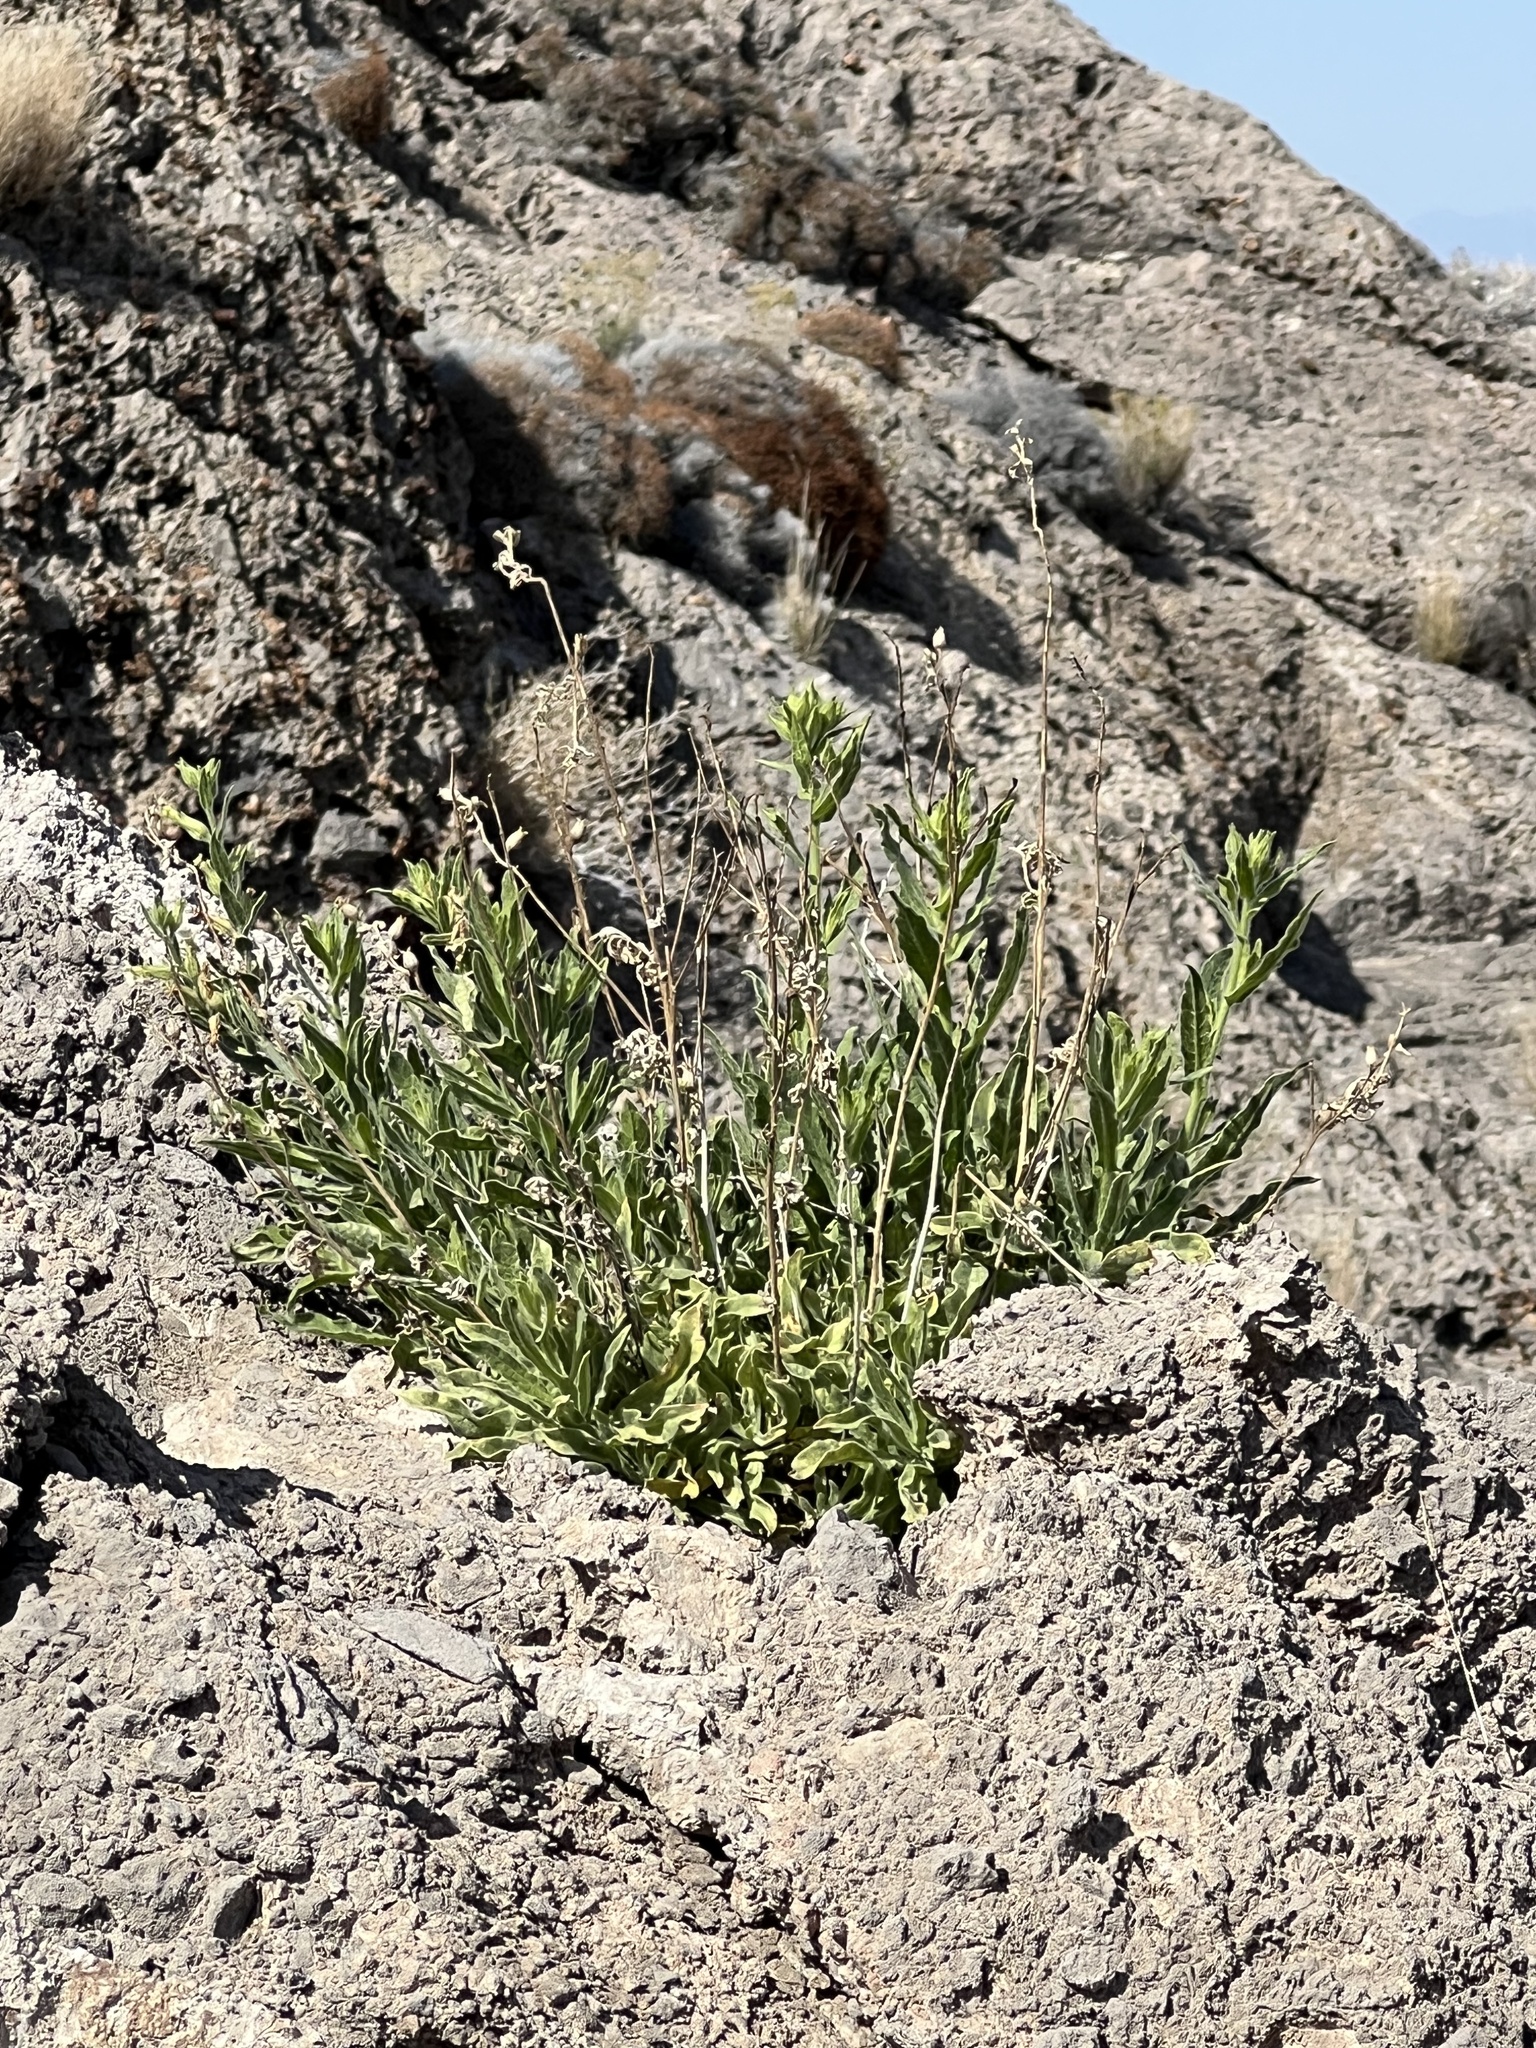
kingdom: Plantae
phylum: Tracheophyta
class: Magnoliopsida
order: Solanales
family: Solanaceae
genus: Nicotiana
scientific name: Nicotiana obtusifolia
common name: Desert tobacco
